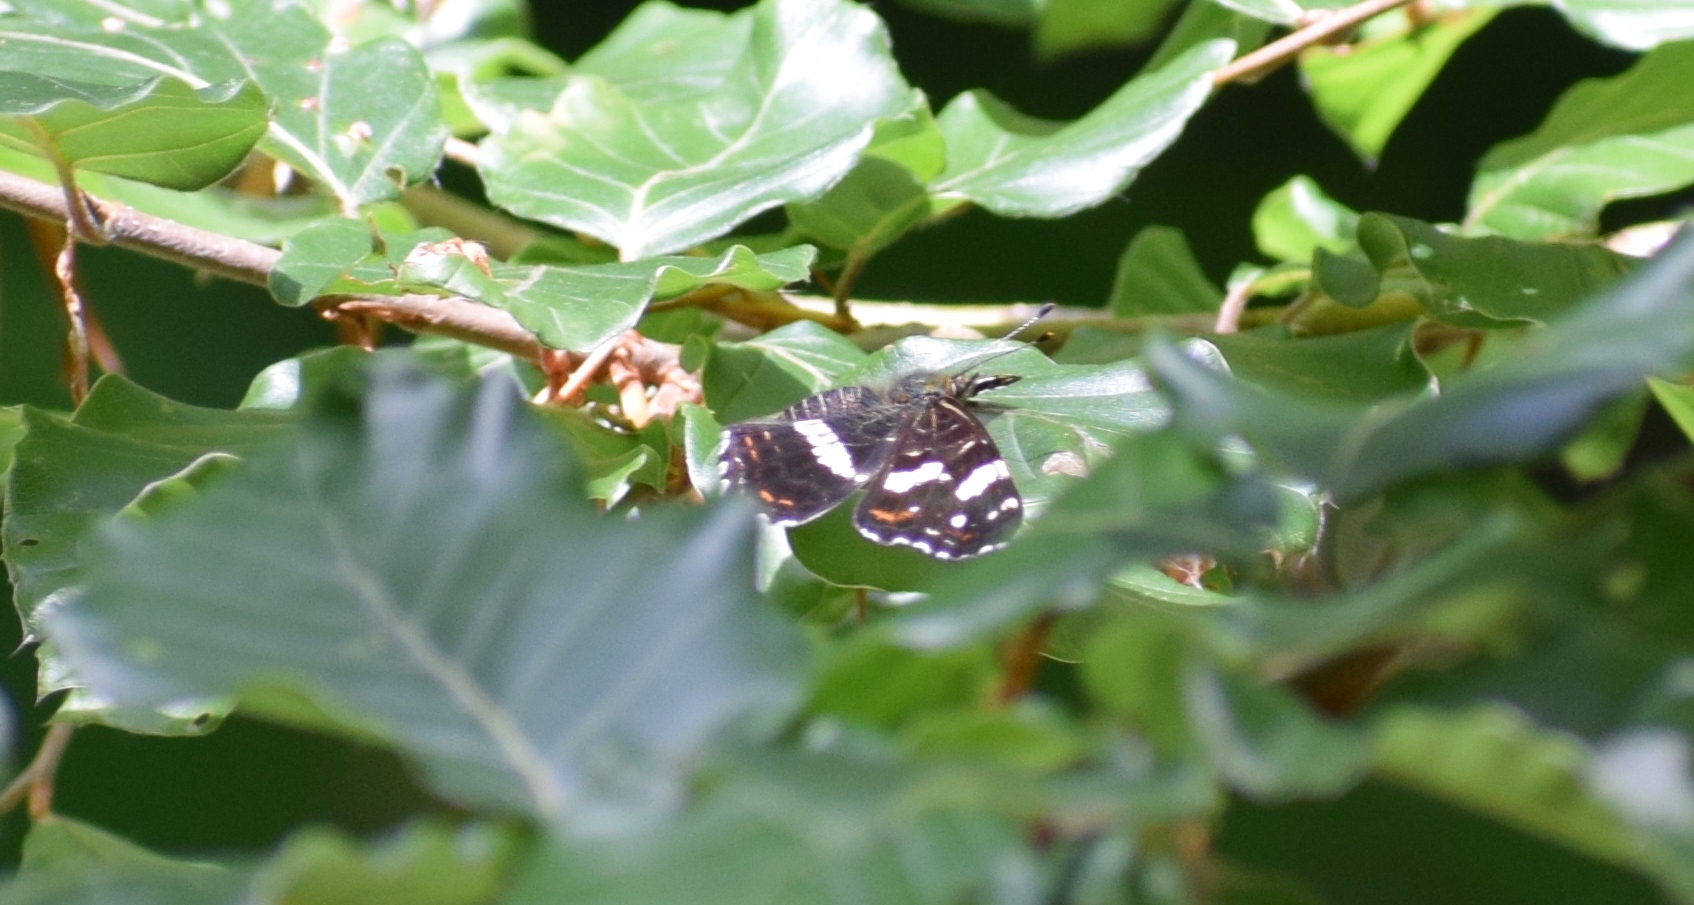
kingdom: Animalia
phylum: Arthropoda
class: Insecta
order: Lepidoptera
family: Nymphalidae
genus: Araschnia
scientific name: Araschnia levana
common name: Map butterfly
